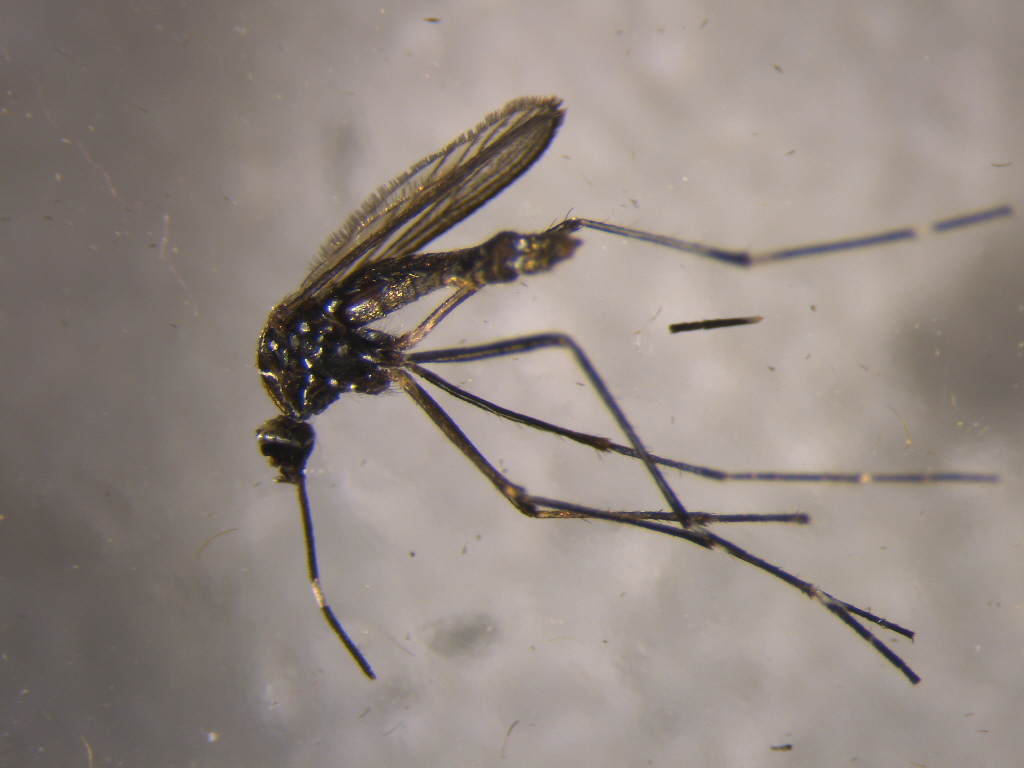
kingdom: Animalia
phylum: Arthropoda
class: Insecta
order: Diptera
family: Culicidae
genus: Aedes
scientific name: Aedes notoscriptus
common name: Australian backyard mosquito
